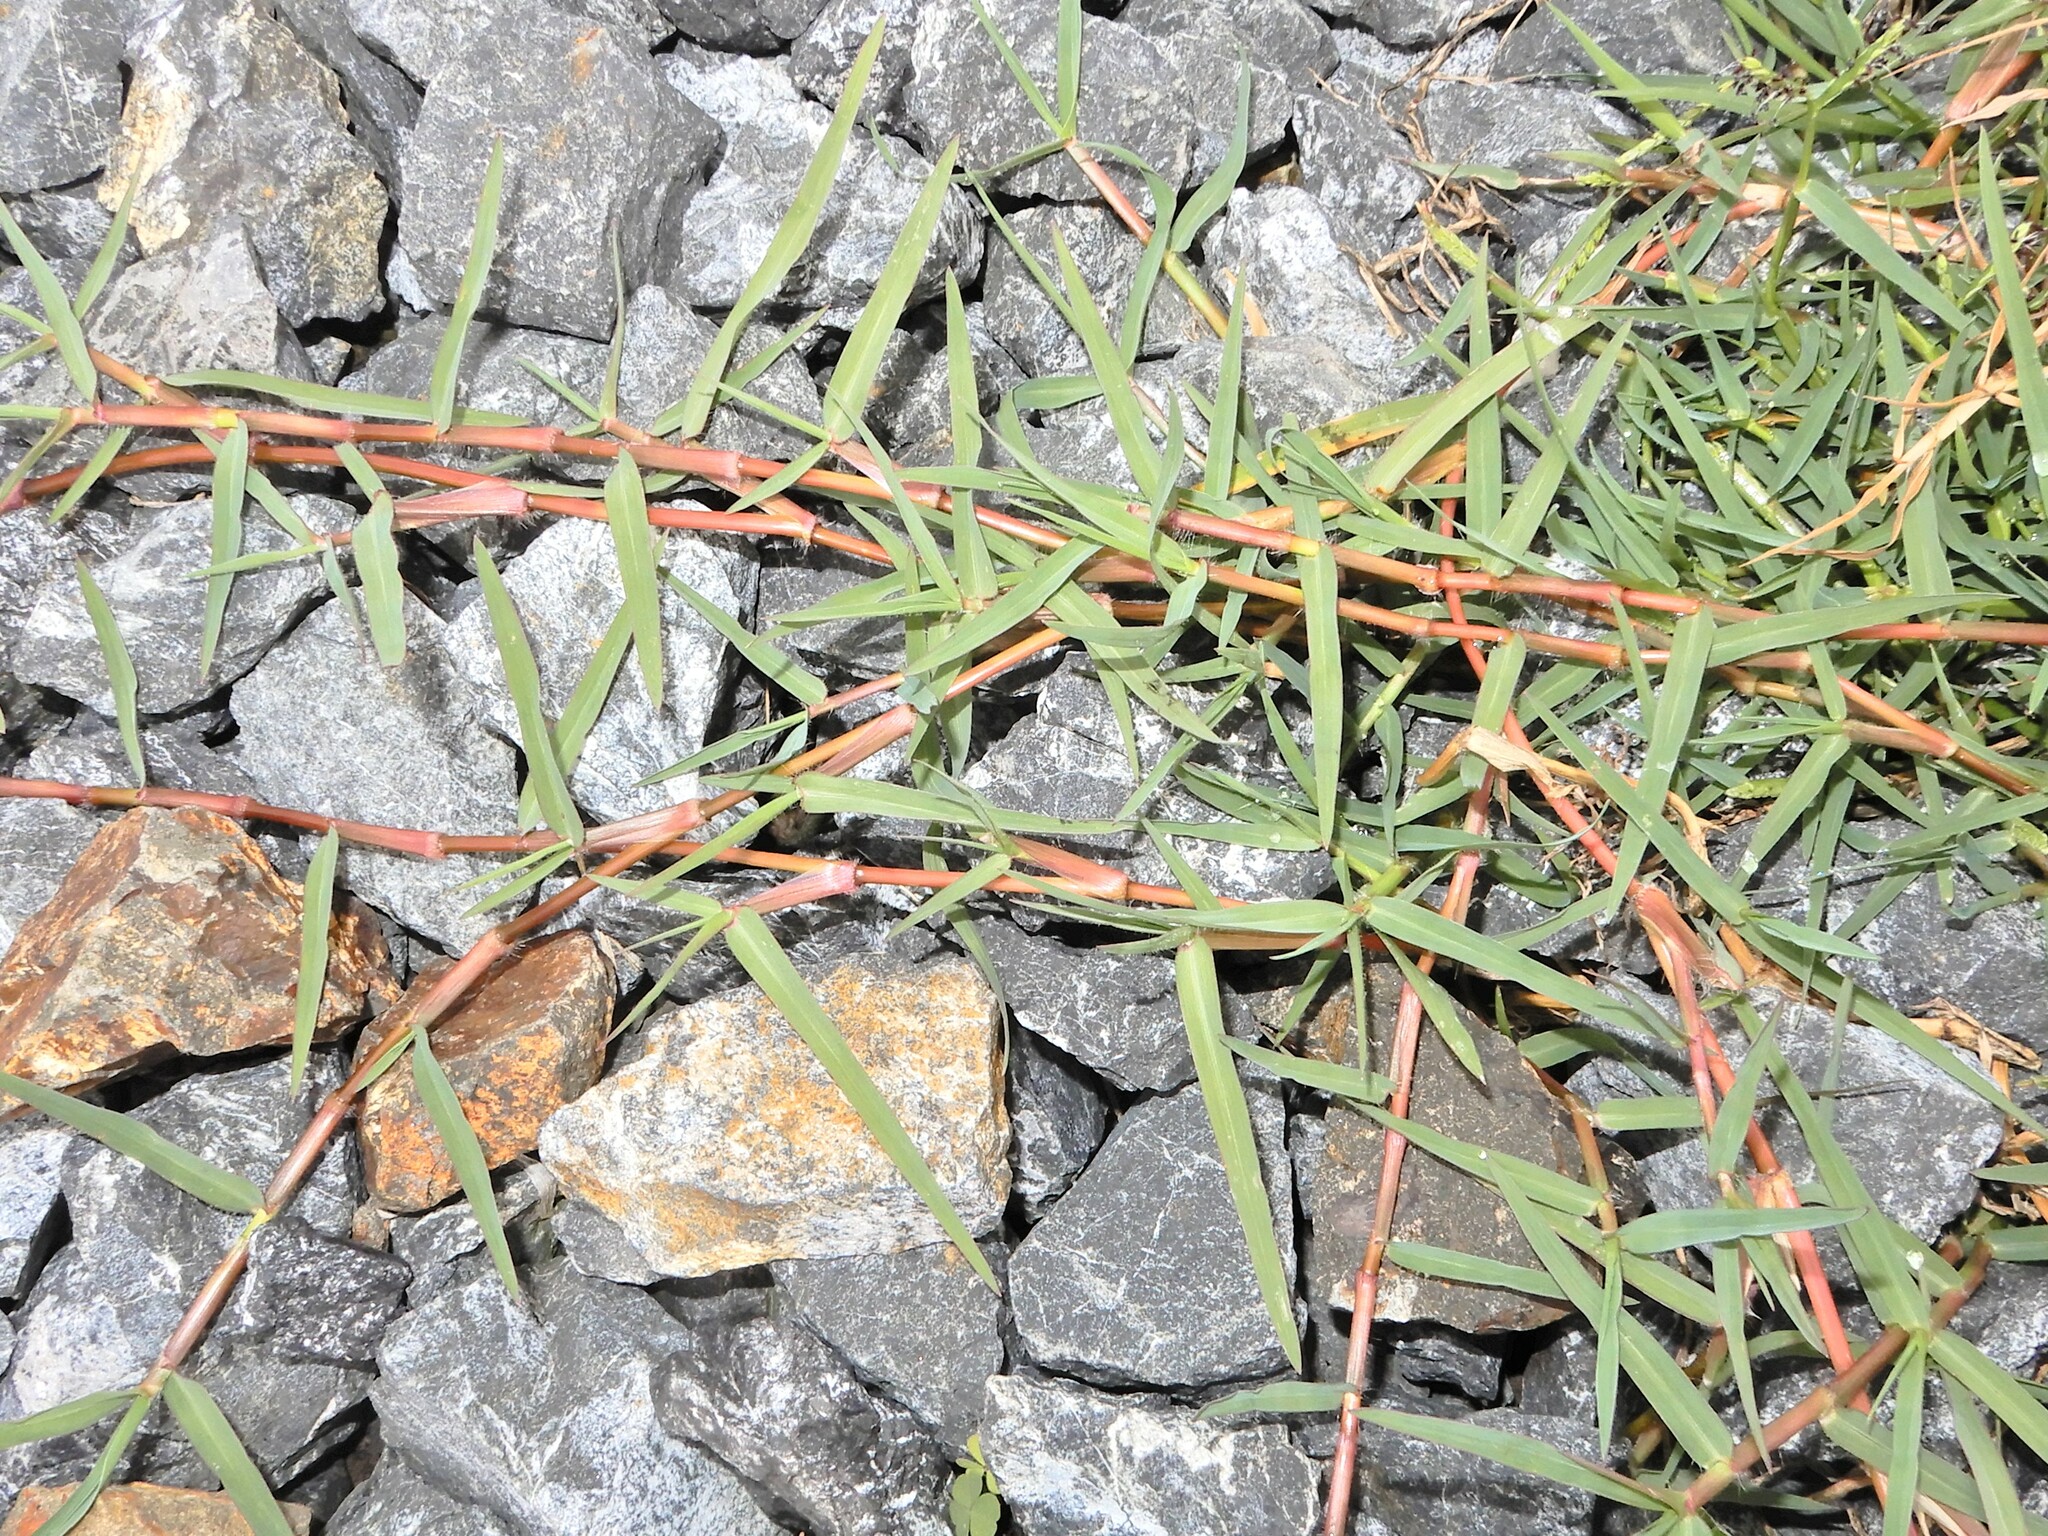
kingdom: Plantae
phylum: Tracheophyta
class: Liliopsida
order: Poales
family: Poaceae
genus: Paspalum
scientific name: Paspalum distichum
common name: Knotgrass
